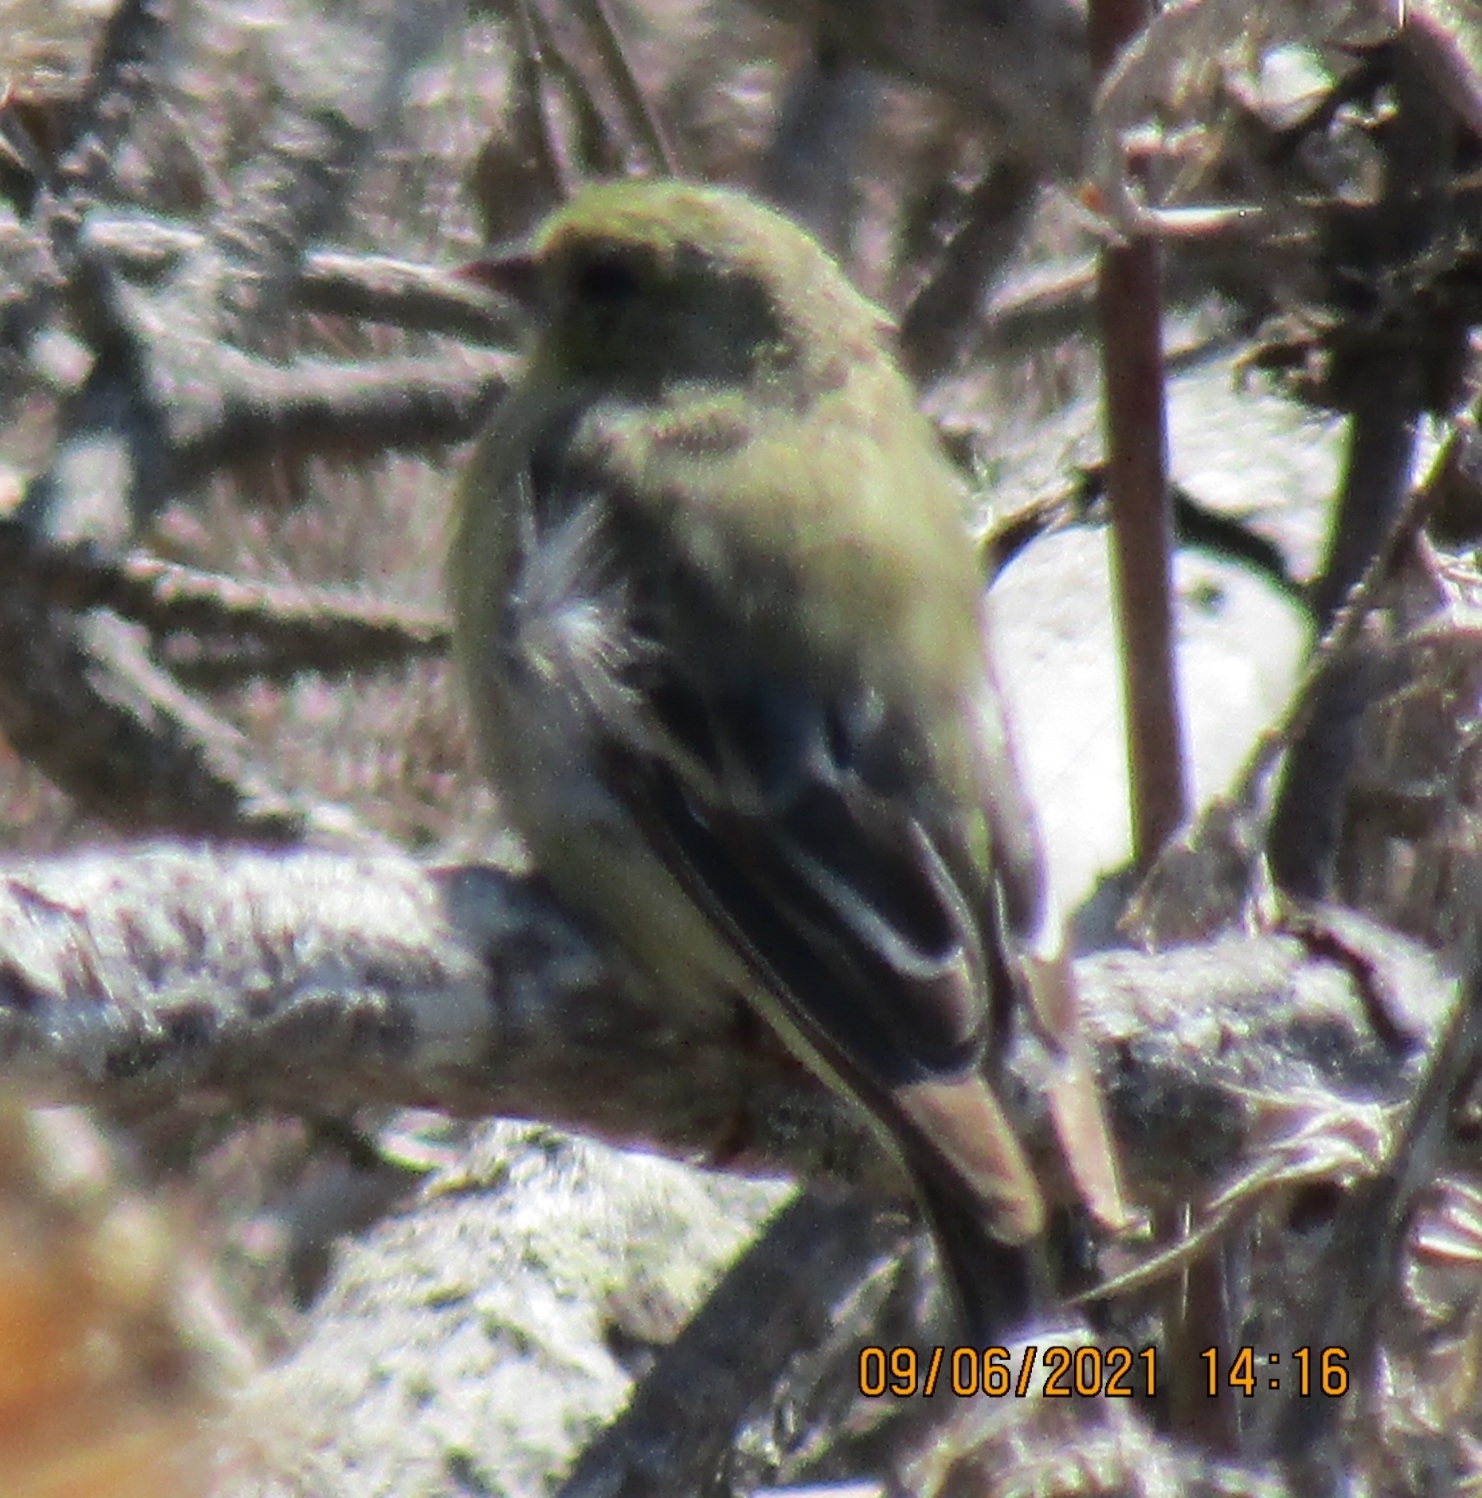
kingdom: Animalia
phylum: Chordata
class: Aves
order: Passeriformes
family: Fringillidae
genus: Spinus
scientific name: Spinus psaltria
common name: Lesser goldfinch
